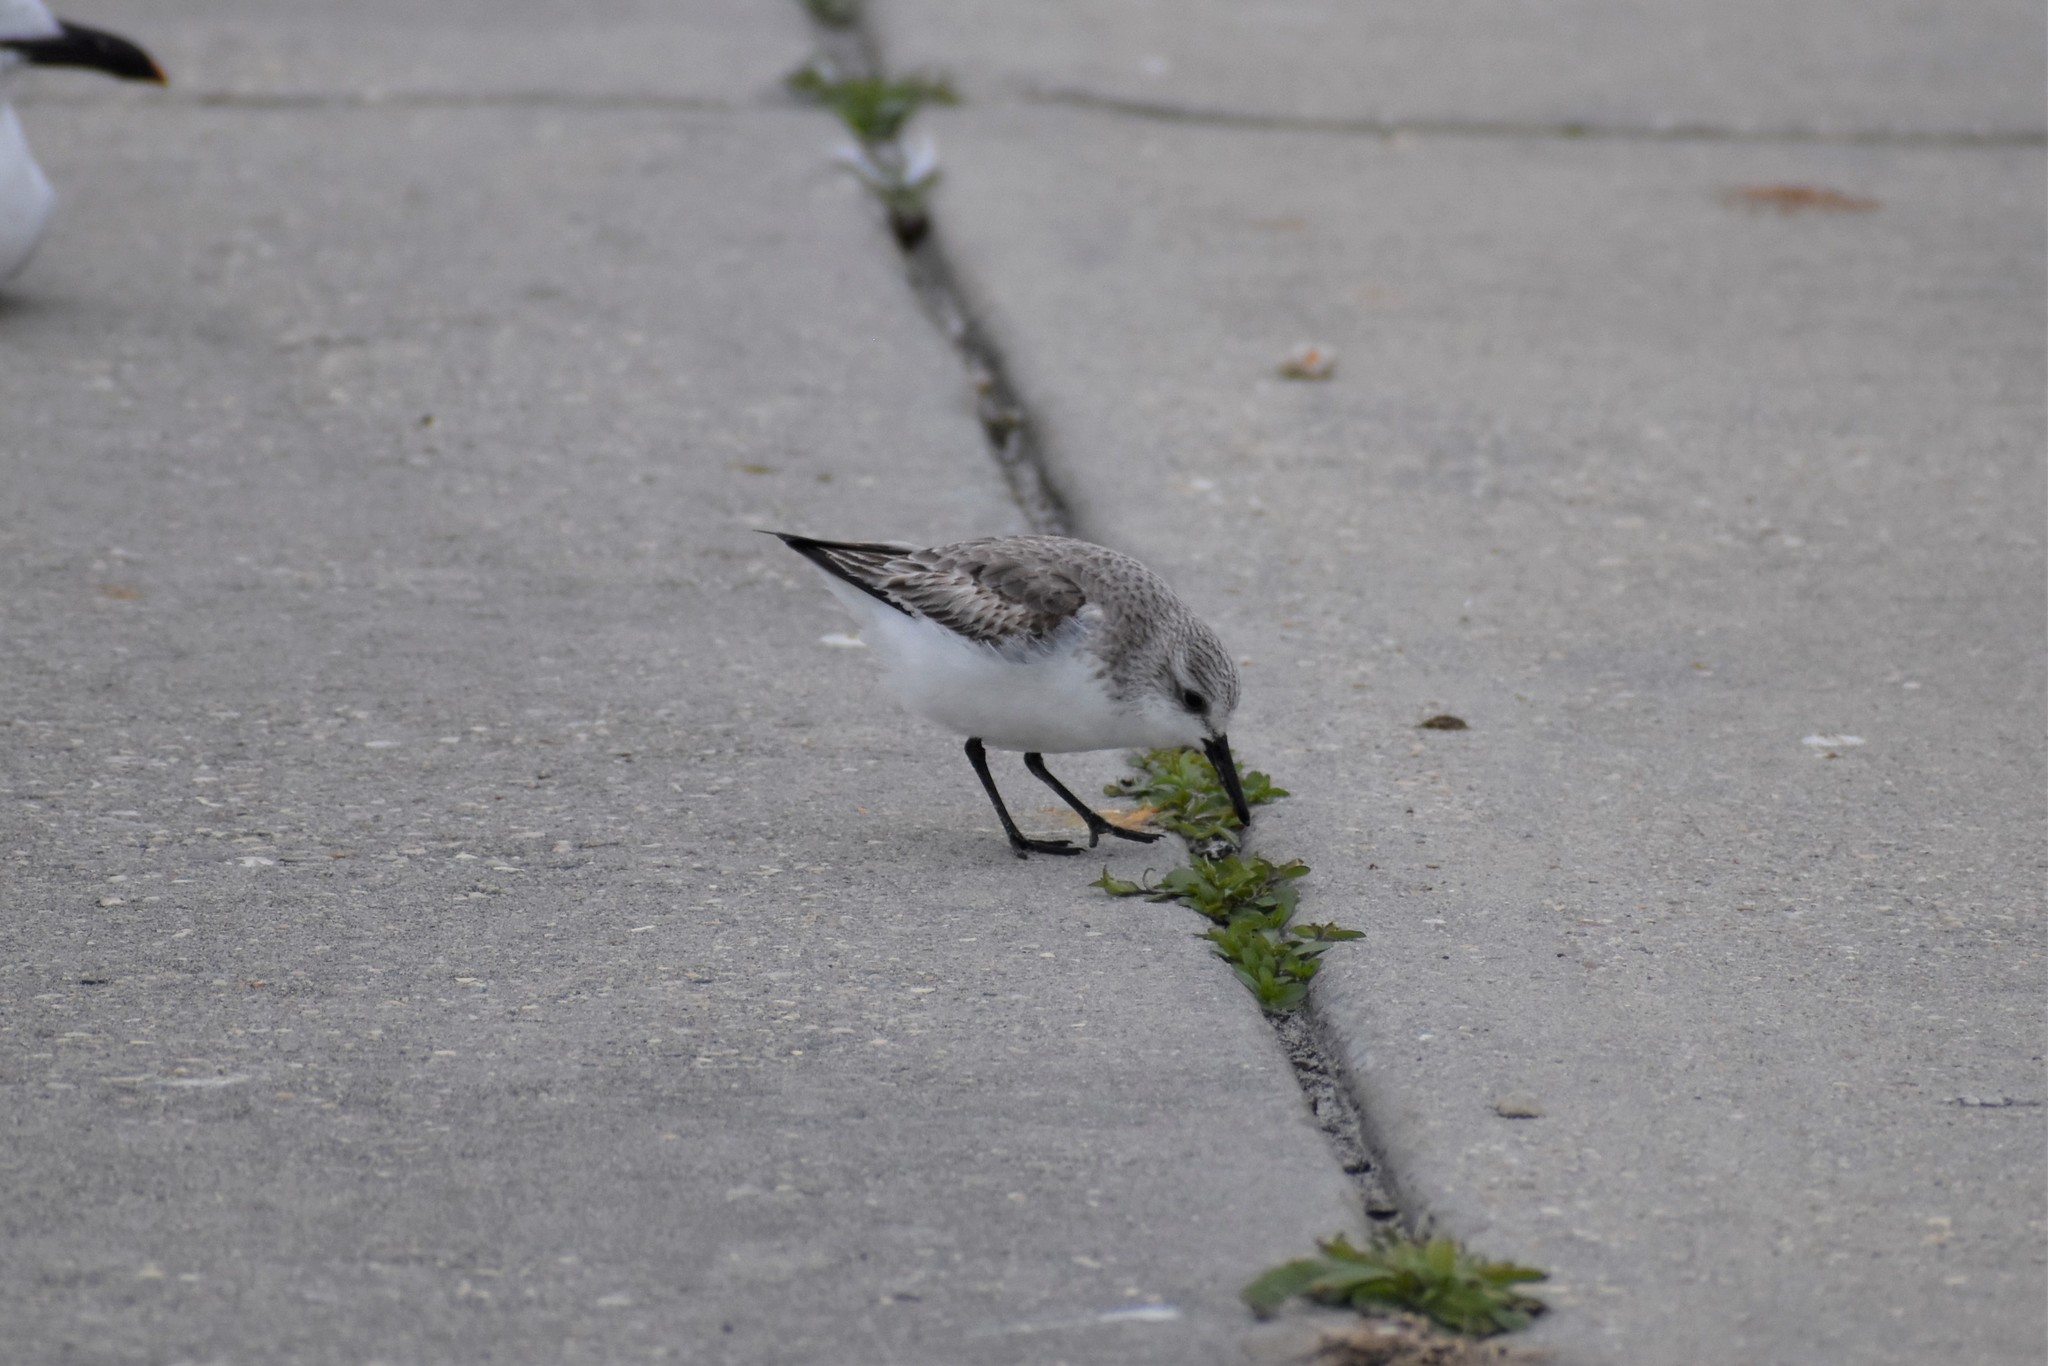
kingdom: Animalia
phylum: Chordata
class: Aves
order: Charadriiformes
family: Scolopacidae
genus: Calidris
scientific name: Calidris alba
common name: Sanderling
